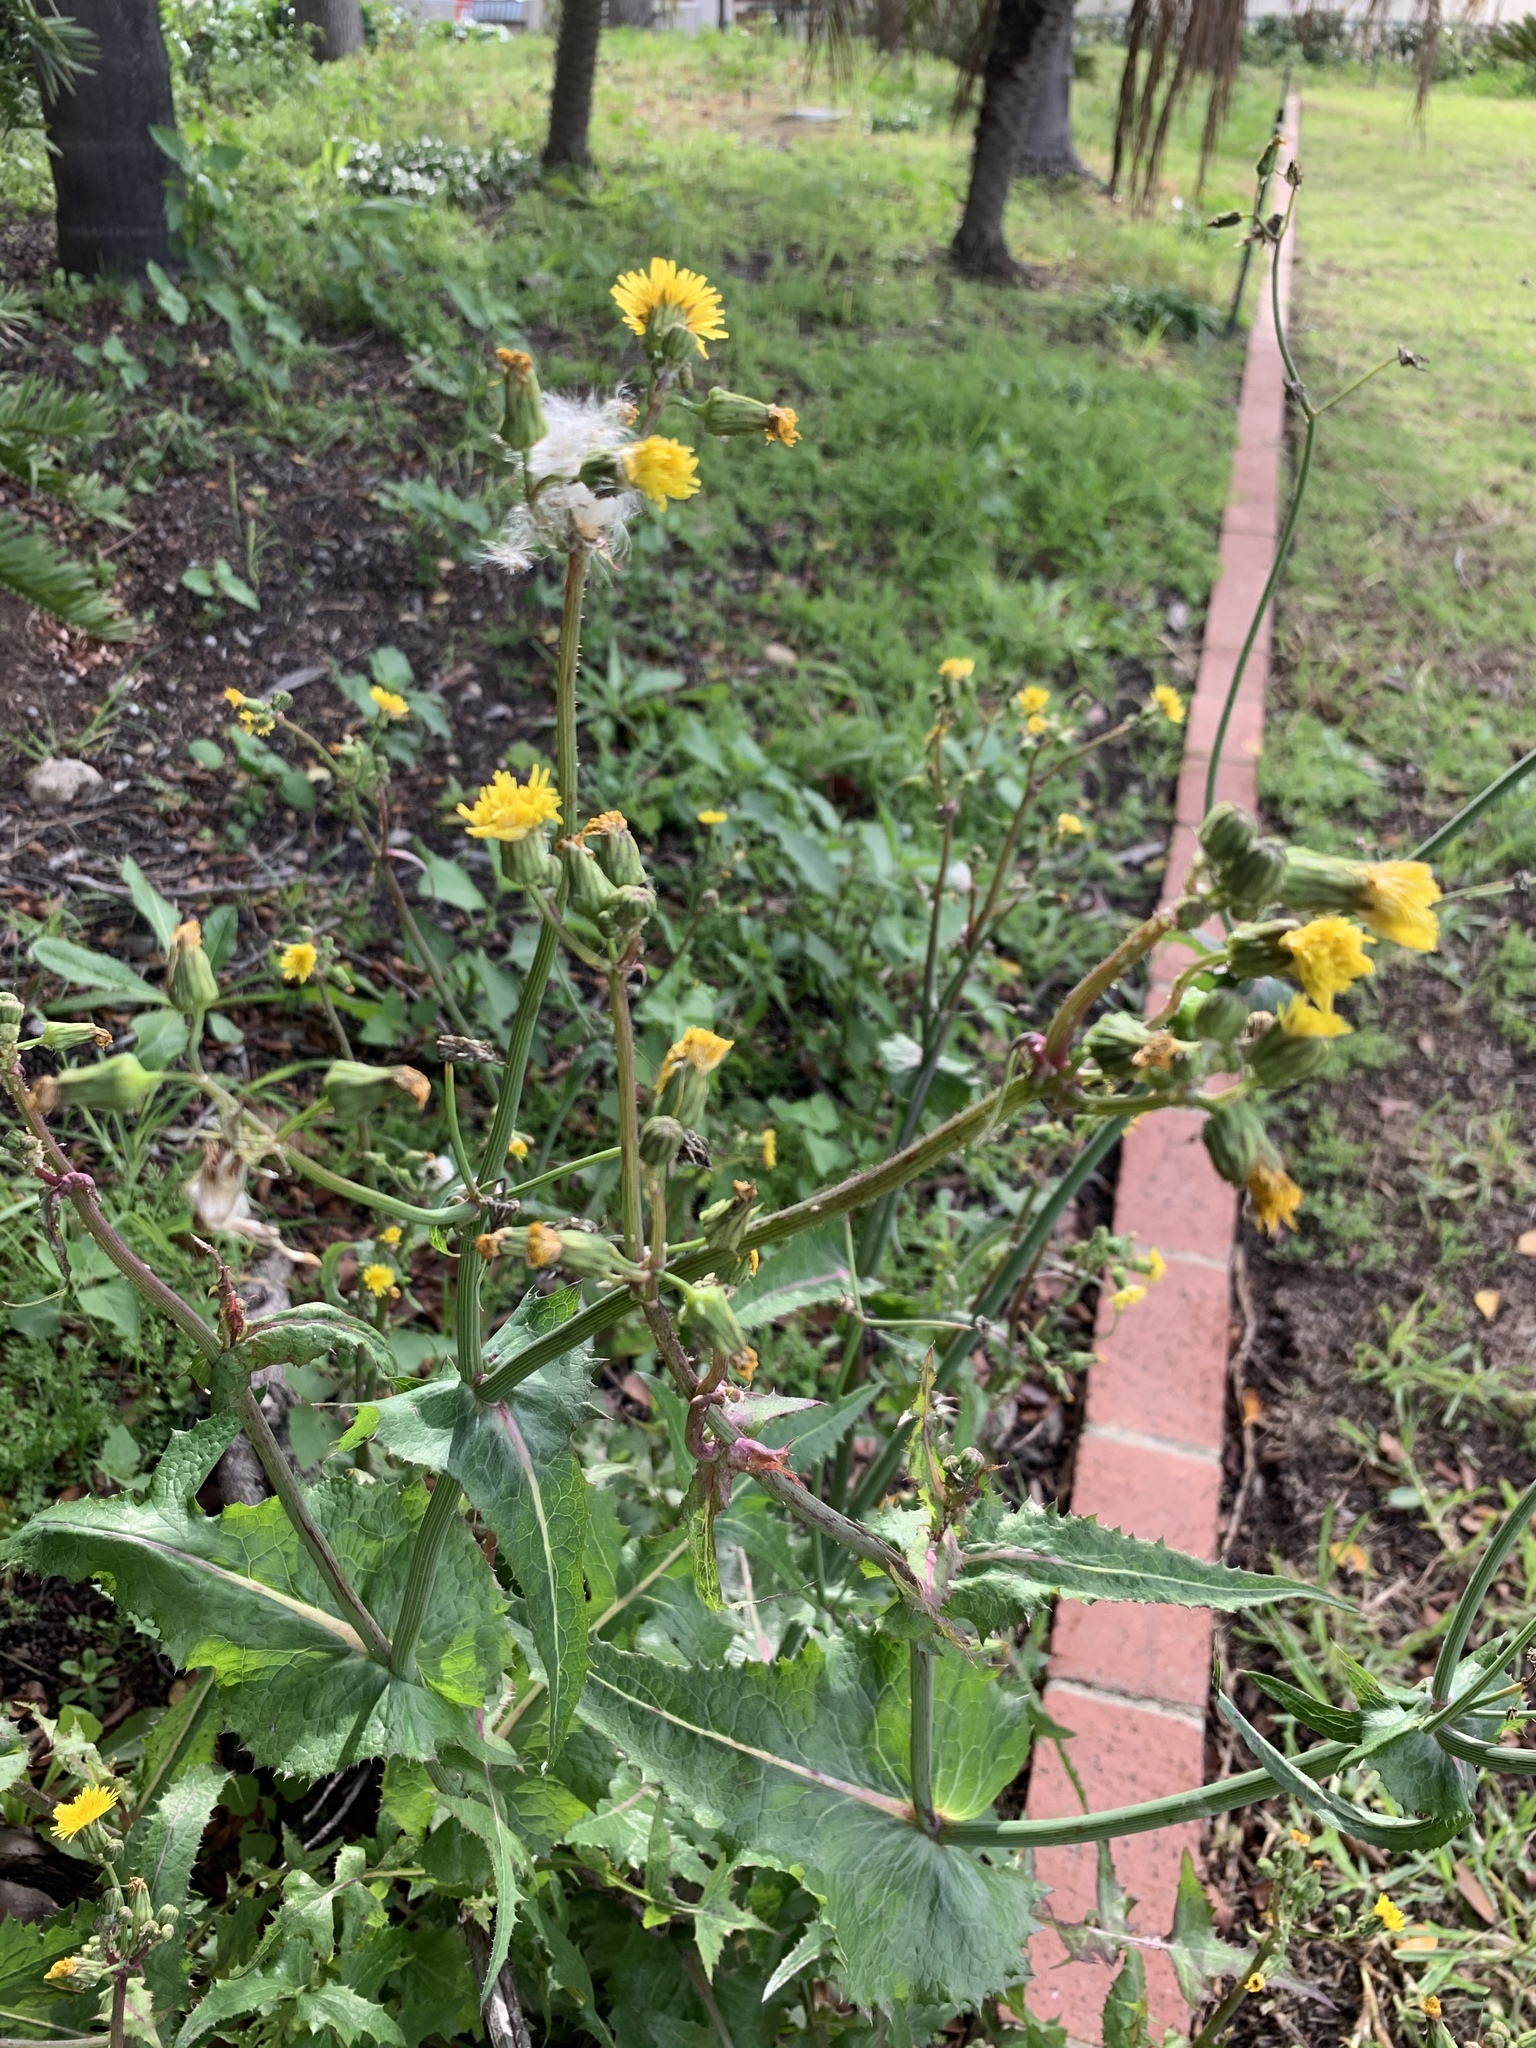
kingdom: Plantae
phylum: Tracheophyta
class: Magnoliopsida
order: Asterales
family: Asteraceae
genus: Sonchus
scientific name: Sonchus oleraceus
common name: Common sowthistle
